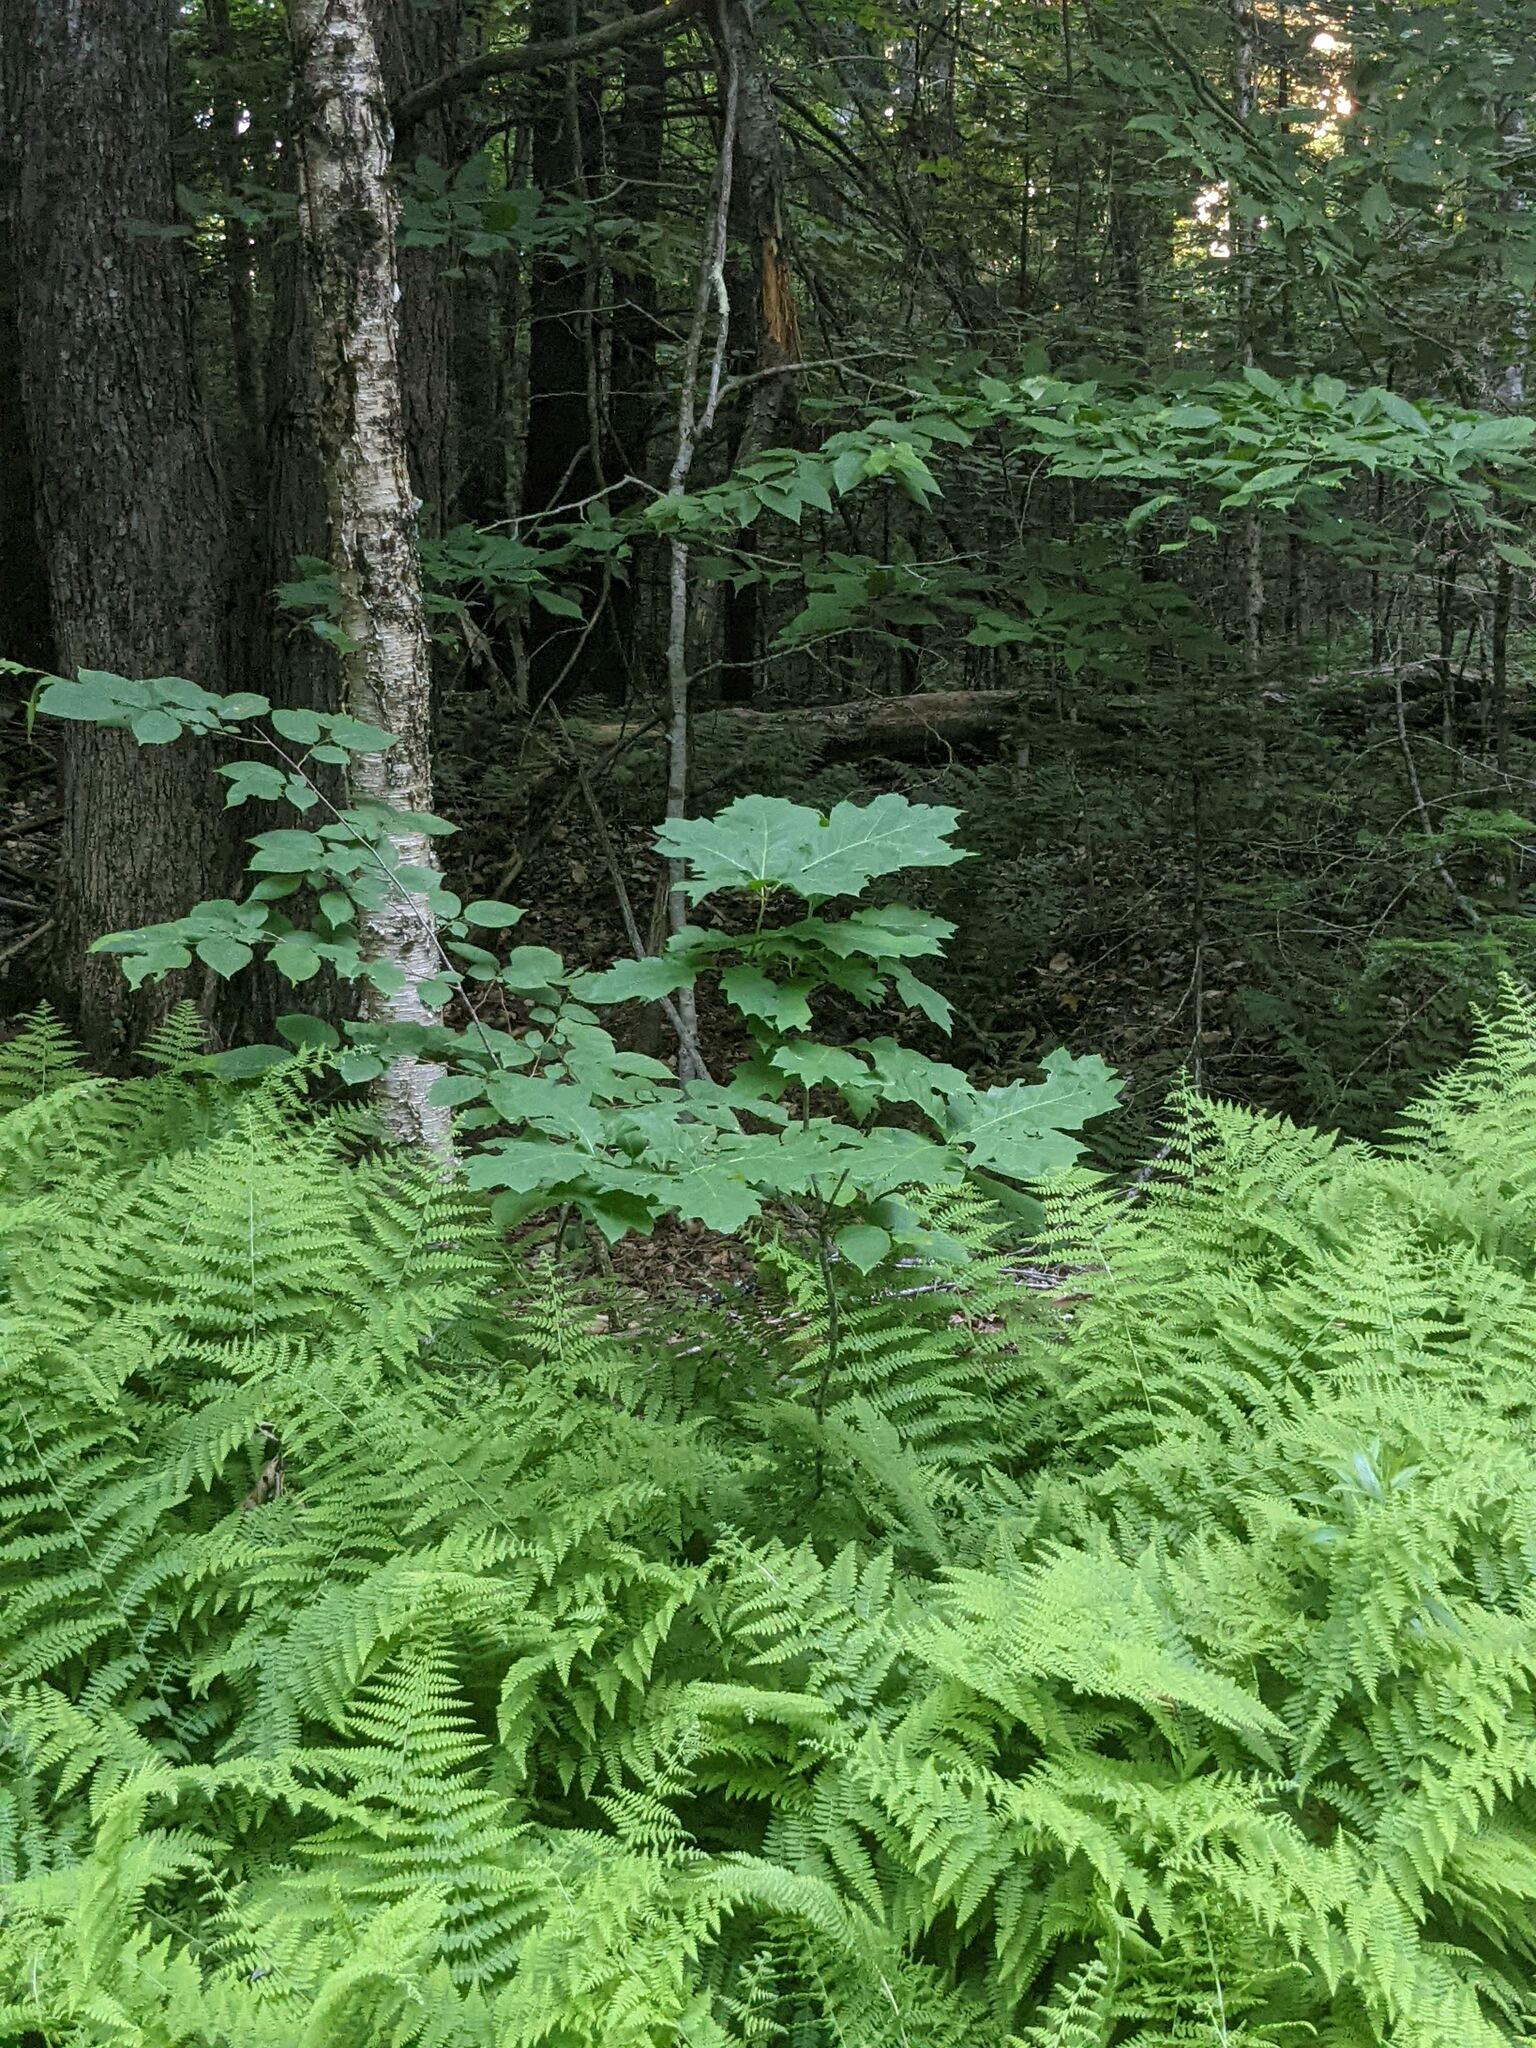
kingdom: Plantae
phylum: Tracheophyta
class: Magnoliopsida
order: Fagales
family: Fagaceae
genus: Quercus
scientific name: Quercus rubra
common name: Red oak
